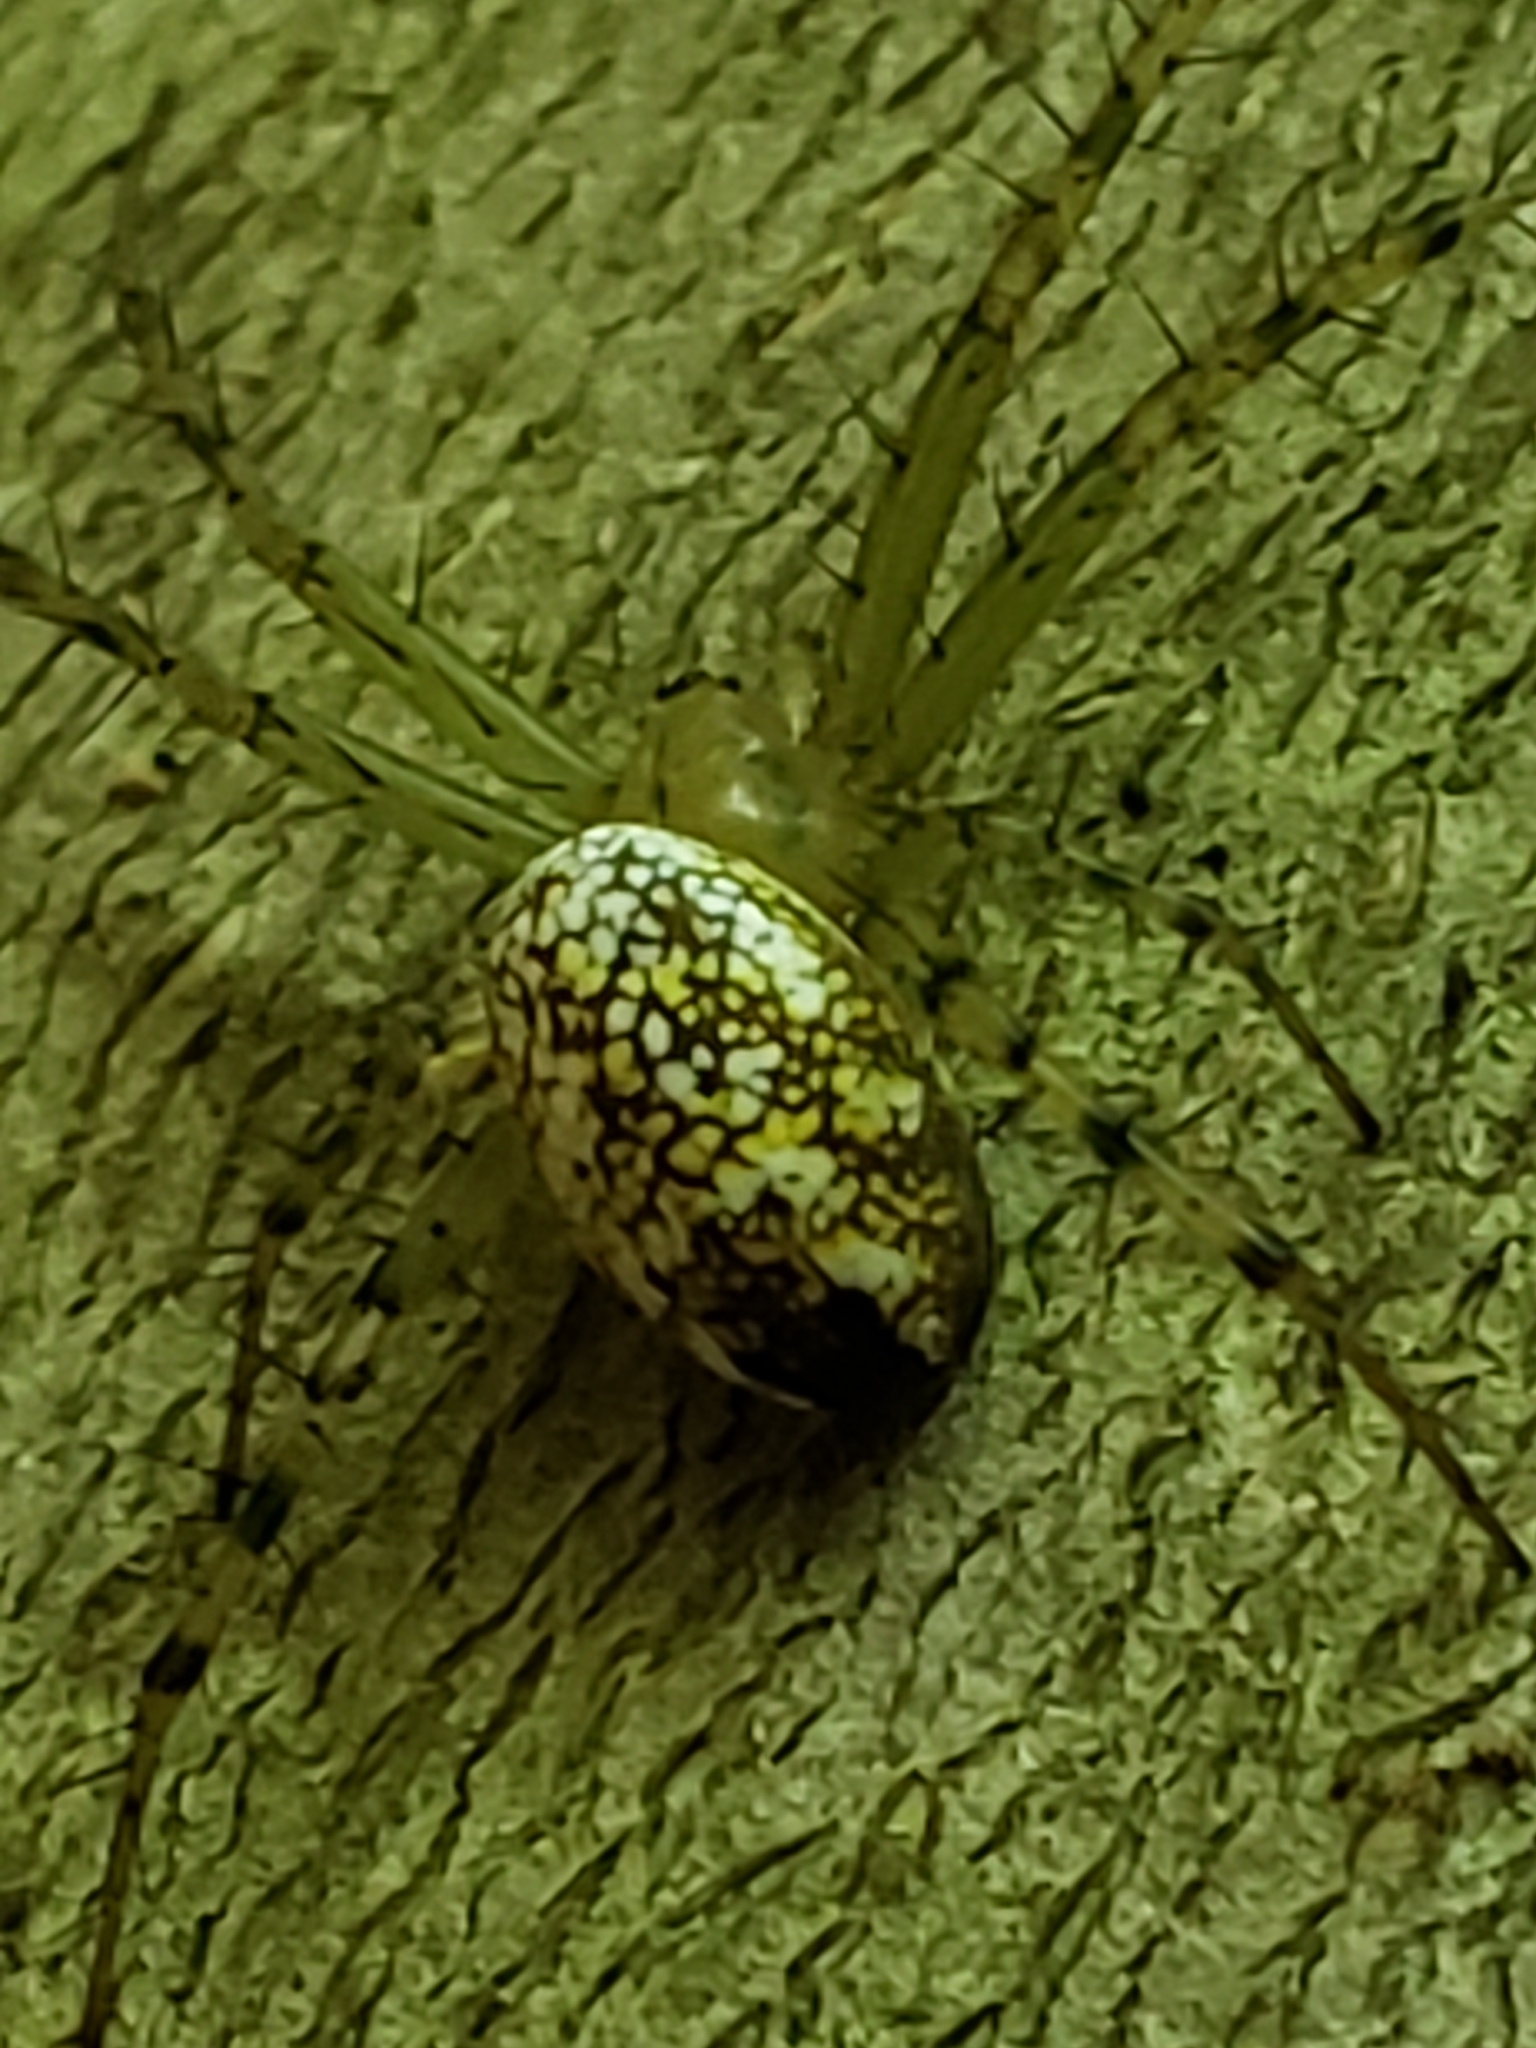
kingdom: Animalia
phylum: Arthropoda
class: Arachnida
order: Araneae
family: Araneidae
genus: Mangora
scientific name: Mangora maculata
